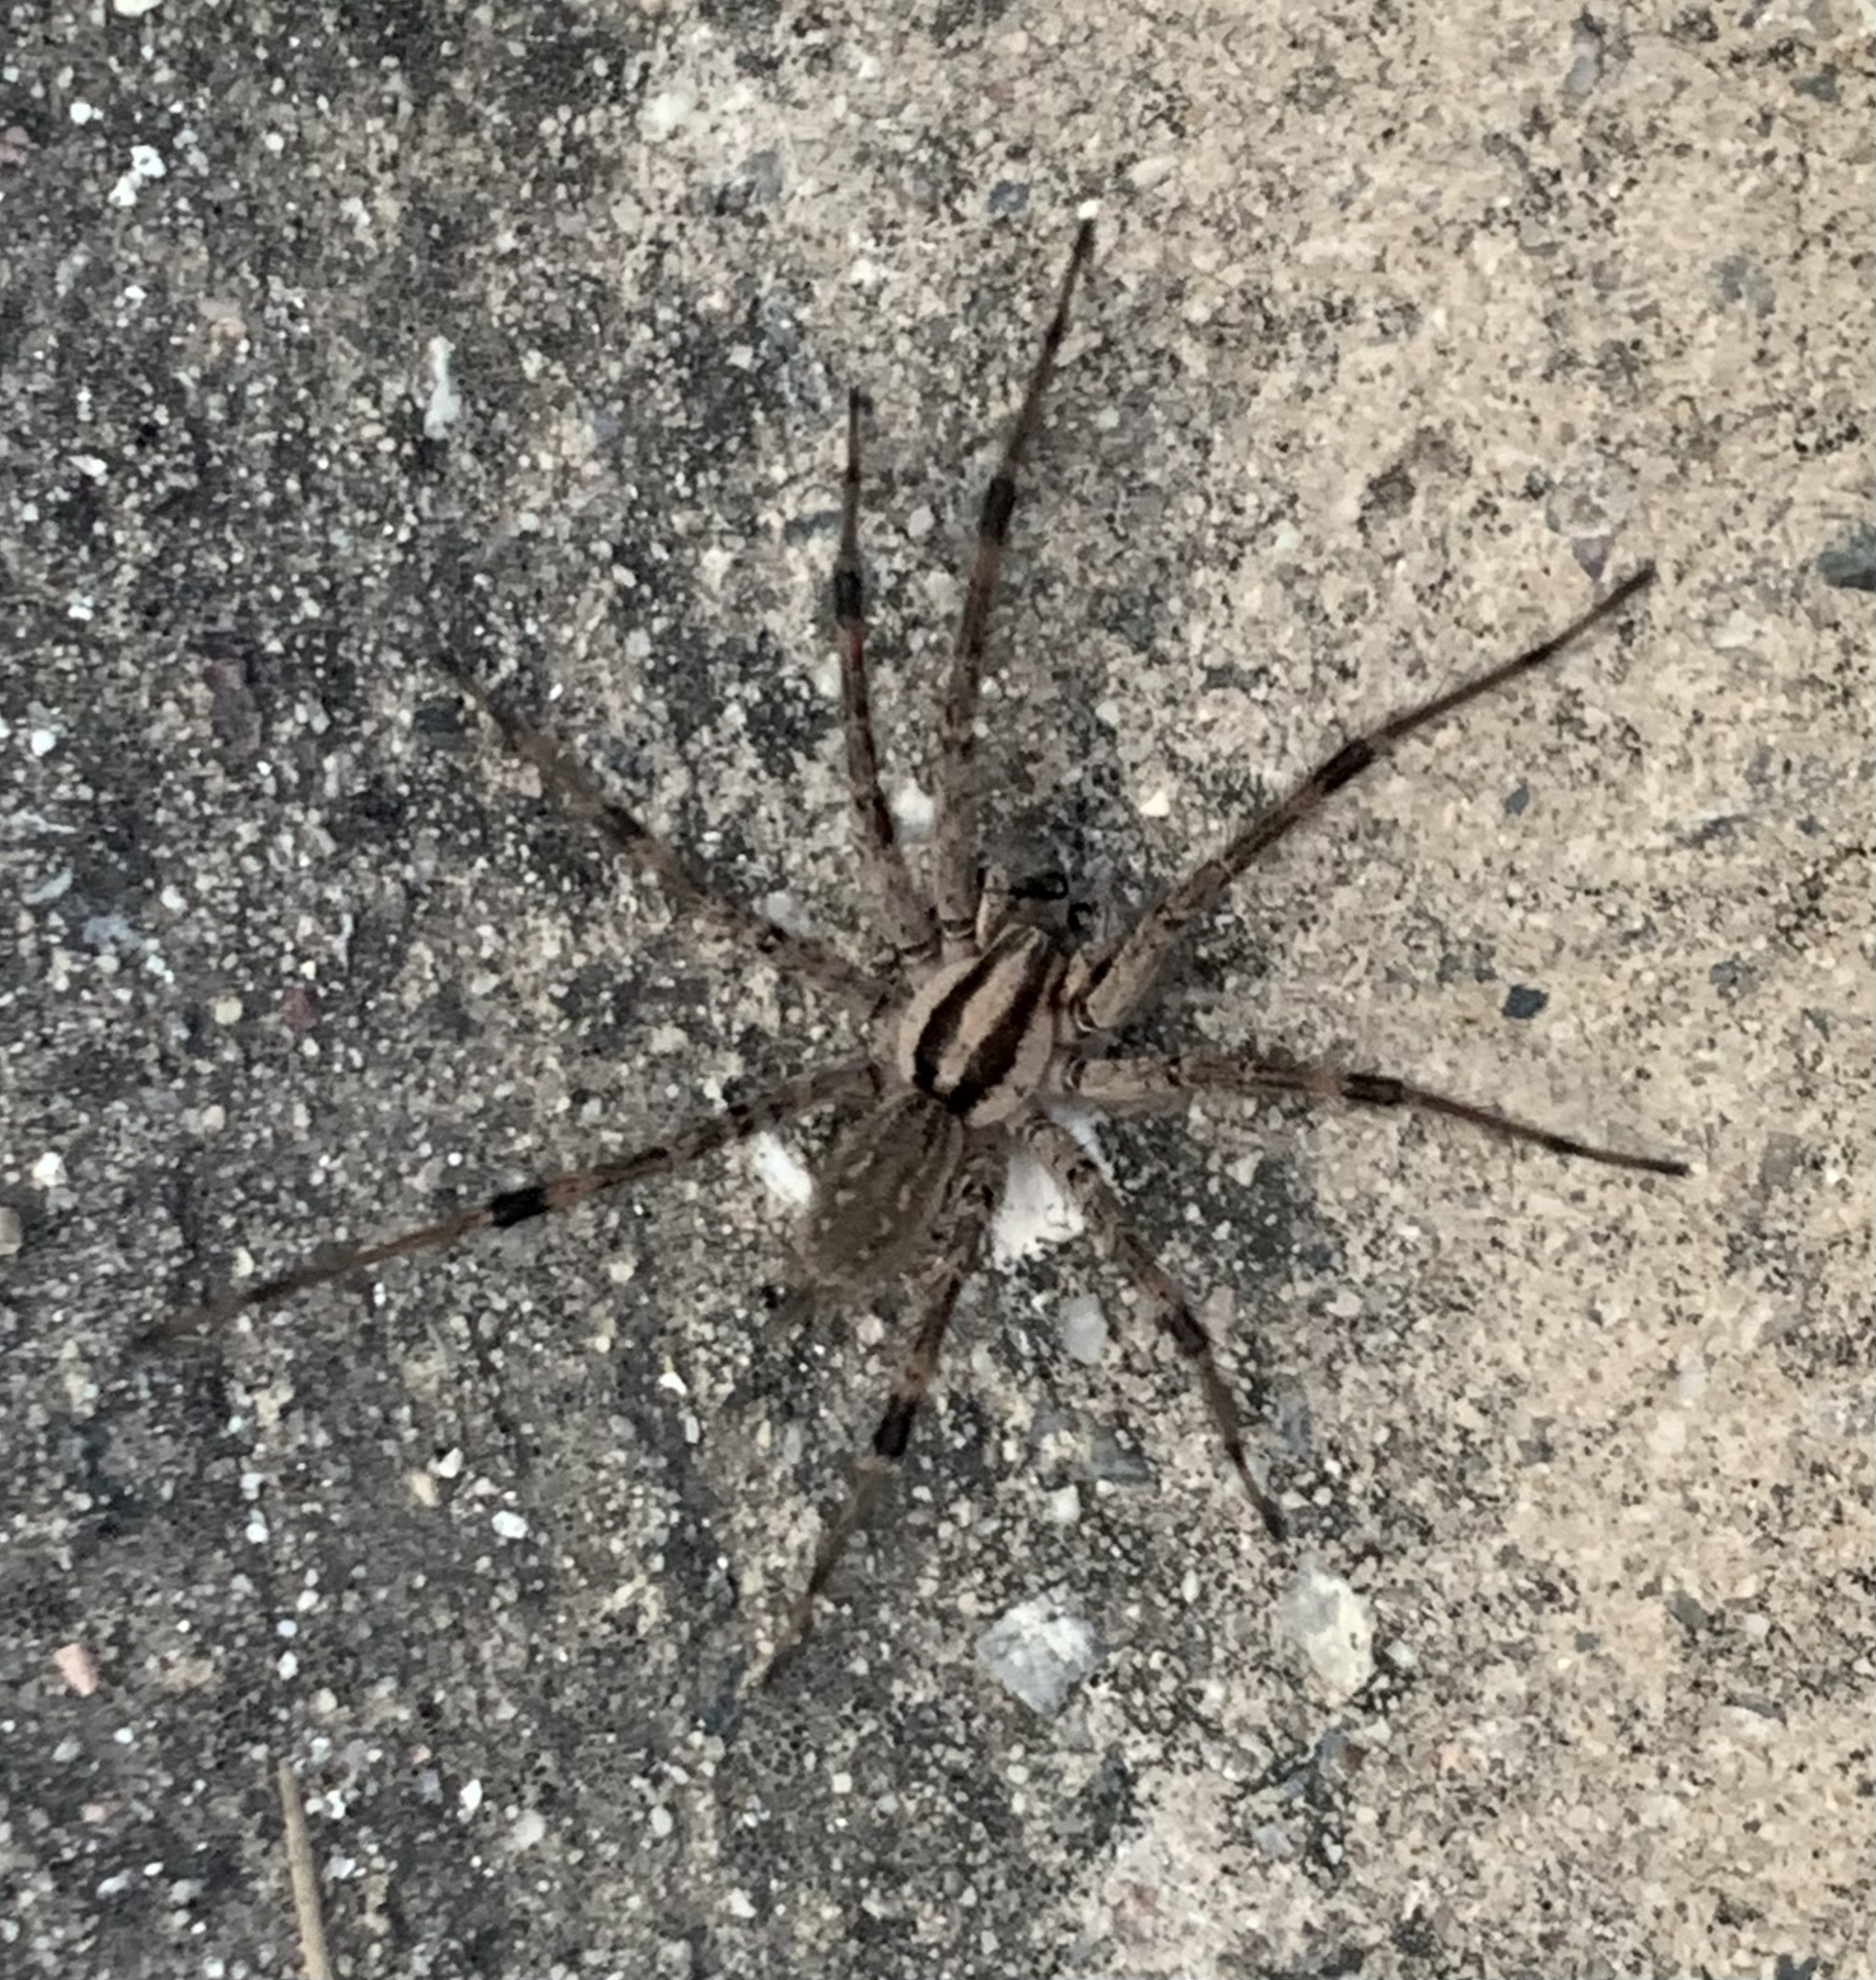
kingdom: Animalia
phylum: Arthropoda
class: Arachnida
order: Araneae
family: Agelenidae
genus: Agelenopsis
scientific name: Agelenopsis
